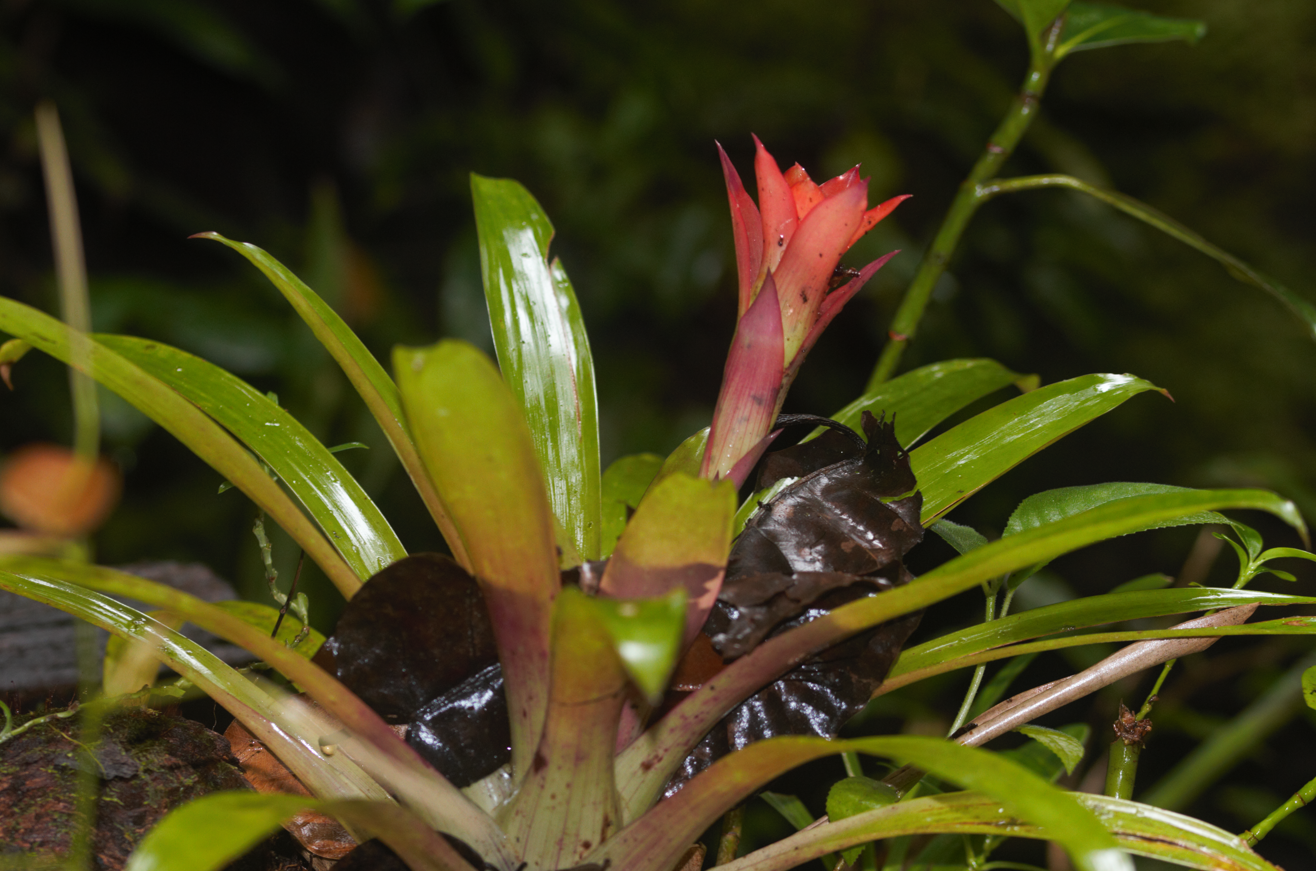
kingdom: Plantae
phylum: Tracheophyta
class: Liliopsida
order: Poales
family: Bromeliaceae
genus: Guzmania
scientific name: Guzmania lingulata
